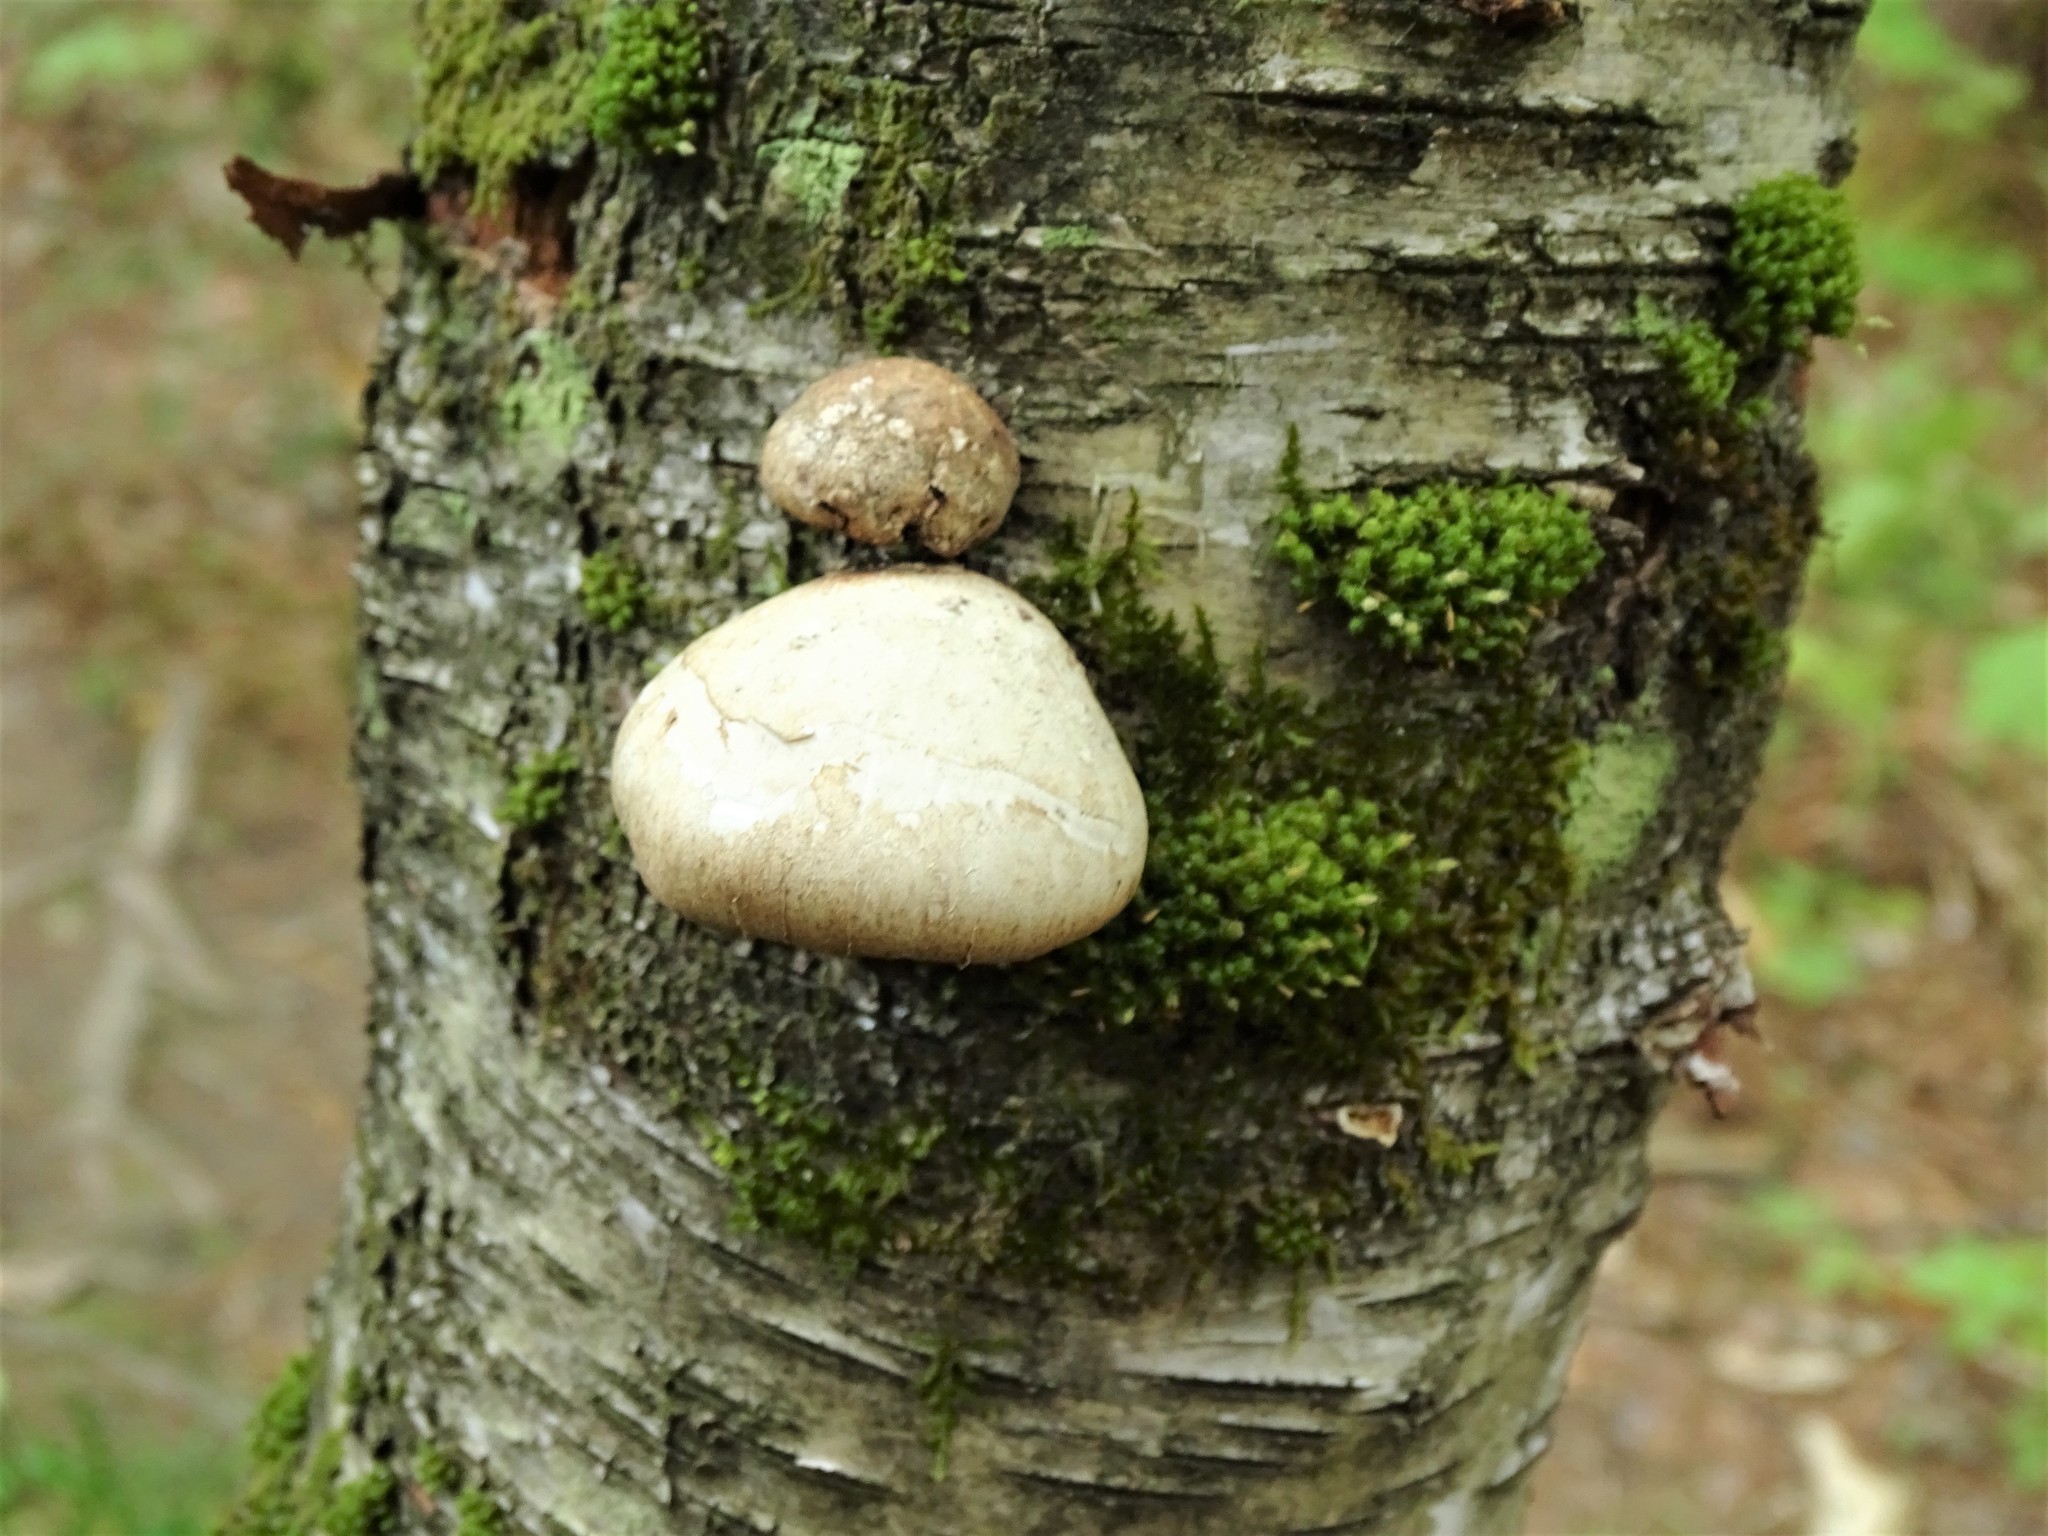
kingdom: Fungi
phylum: Basidiomycota
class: Agaricomycetes
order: Polyporales
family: Fomitopsidaceae
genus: Fomitopsis
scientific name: Fomitopsis betulina
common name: Birch polypore
